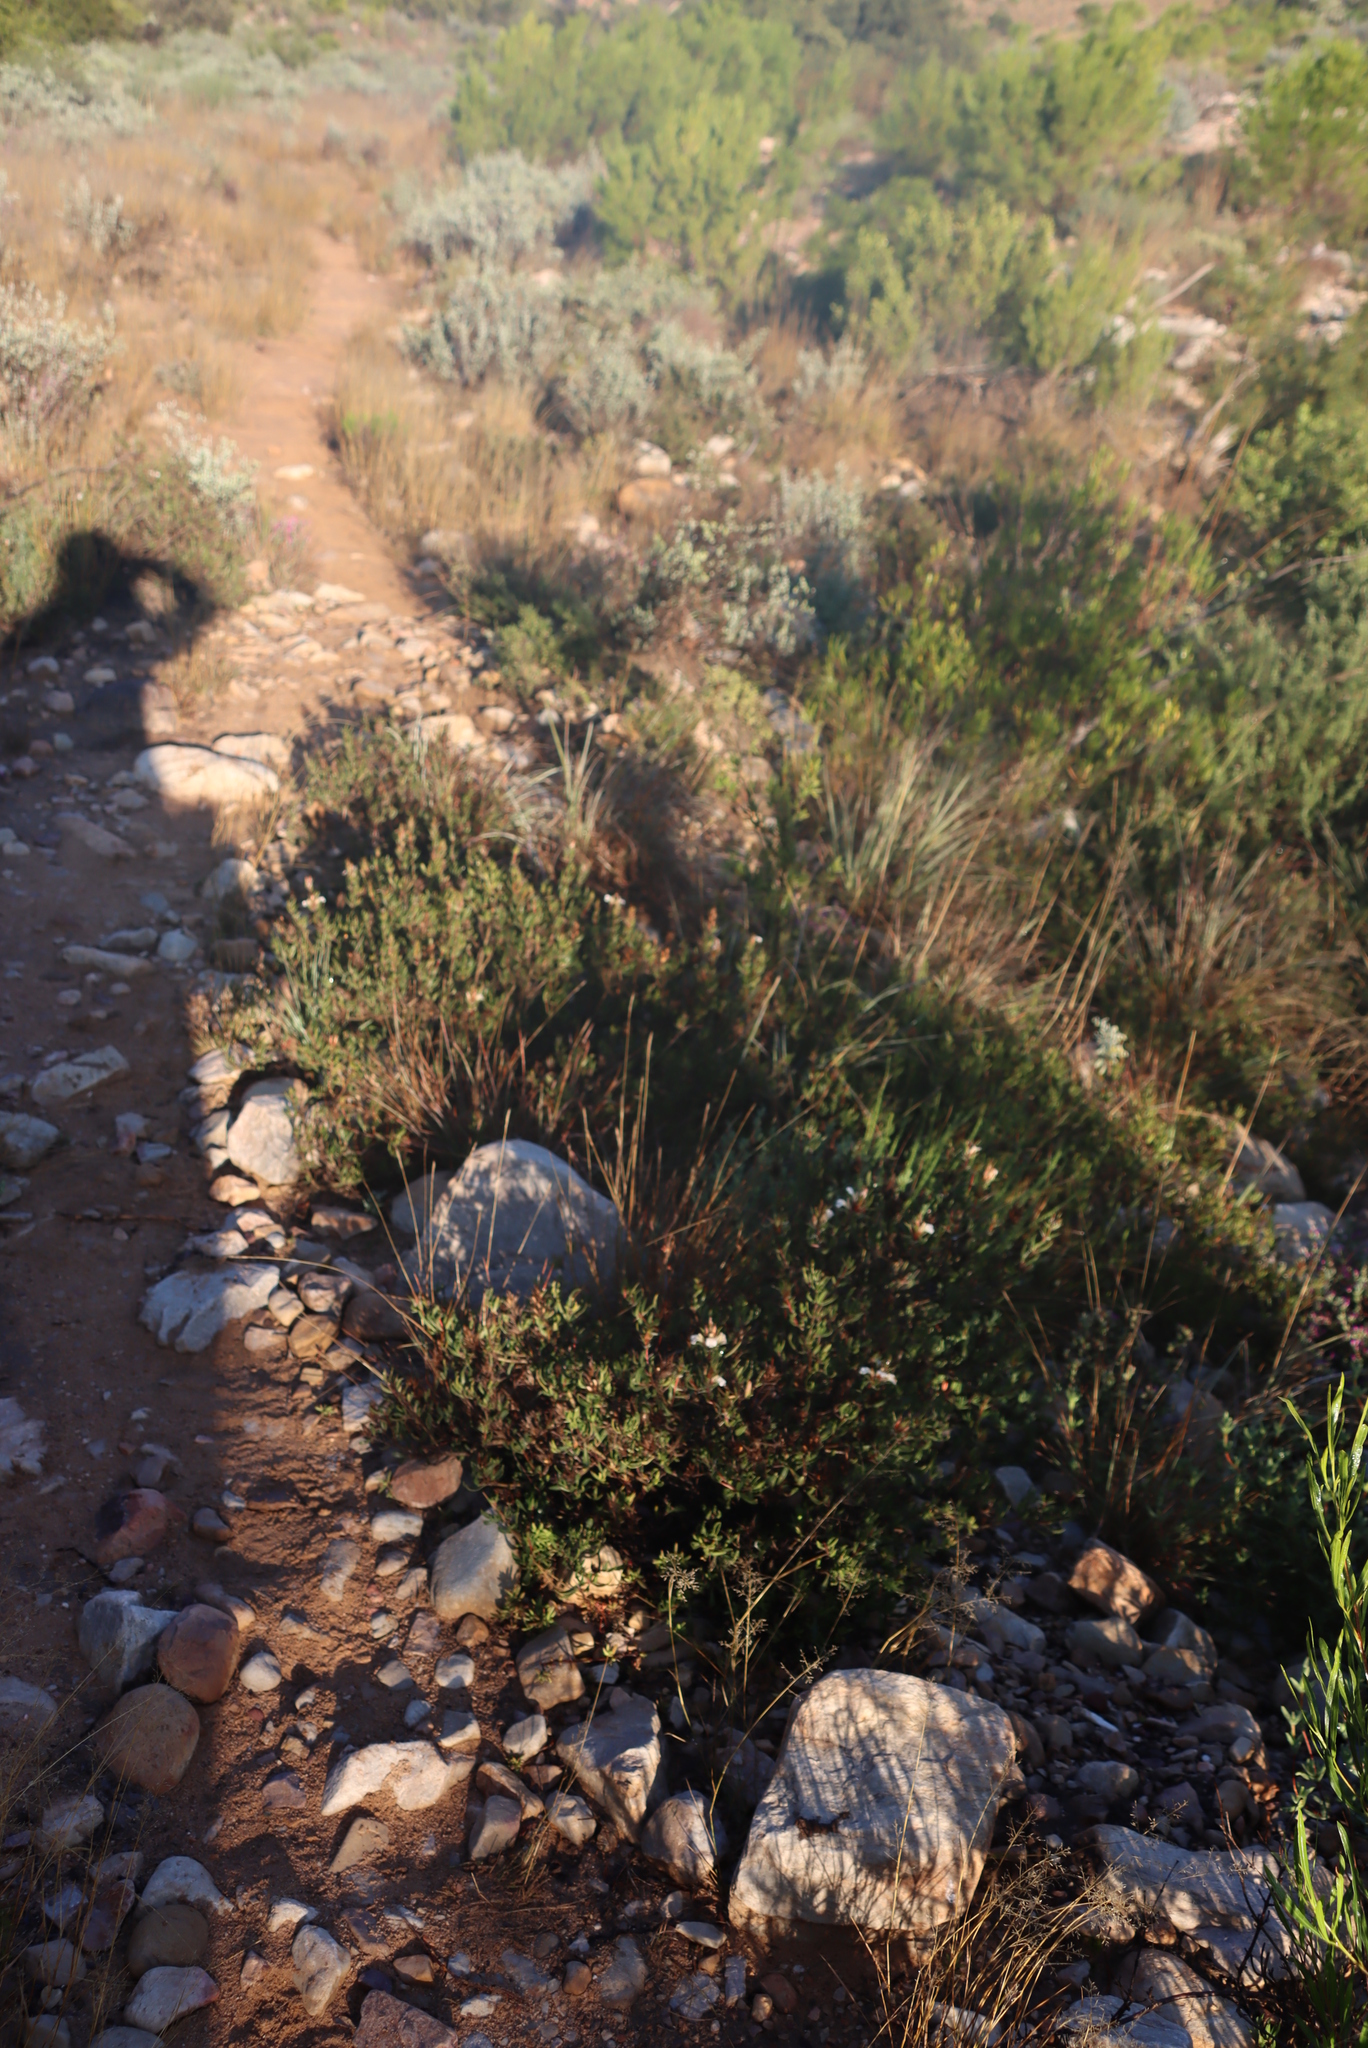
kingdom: Plantae
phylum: Tracheophyta
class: Magnoliopsida
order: Lamiales
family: Acanthaceae
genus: Blepharis
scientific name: Blepharis capensis
